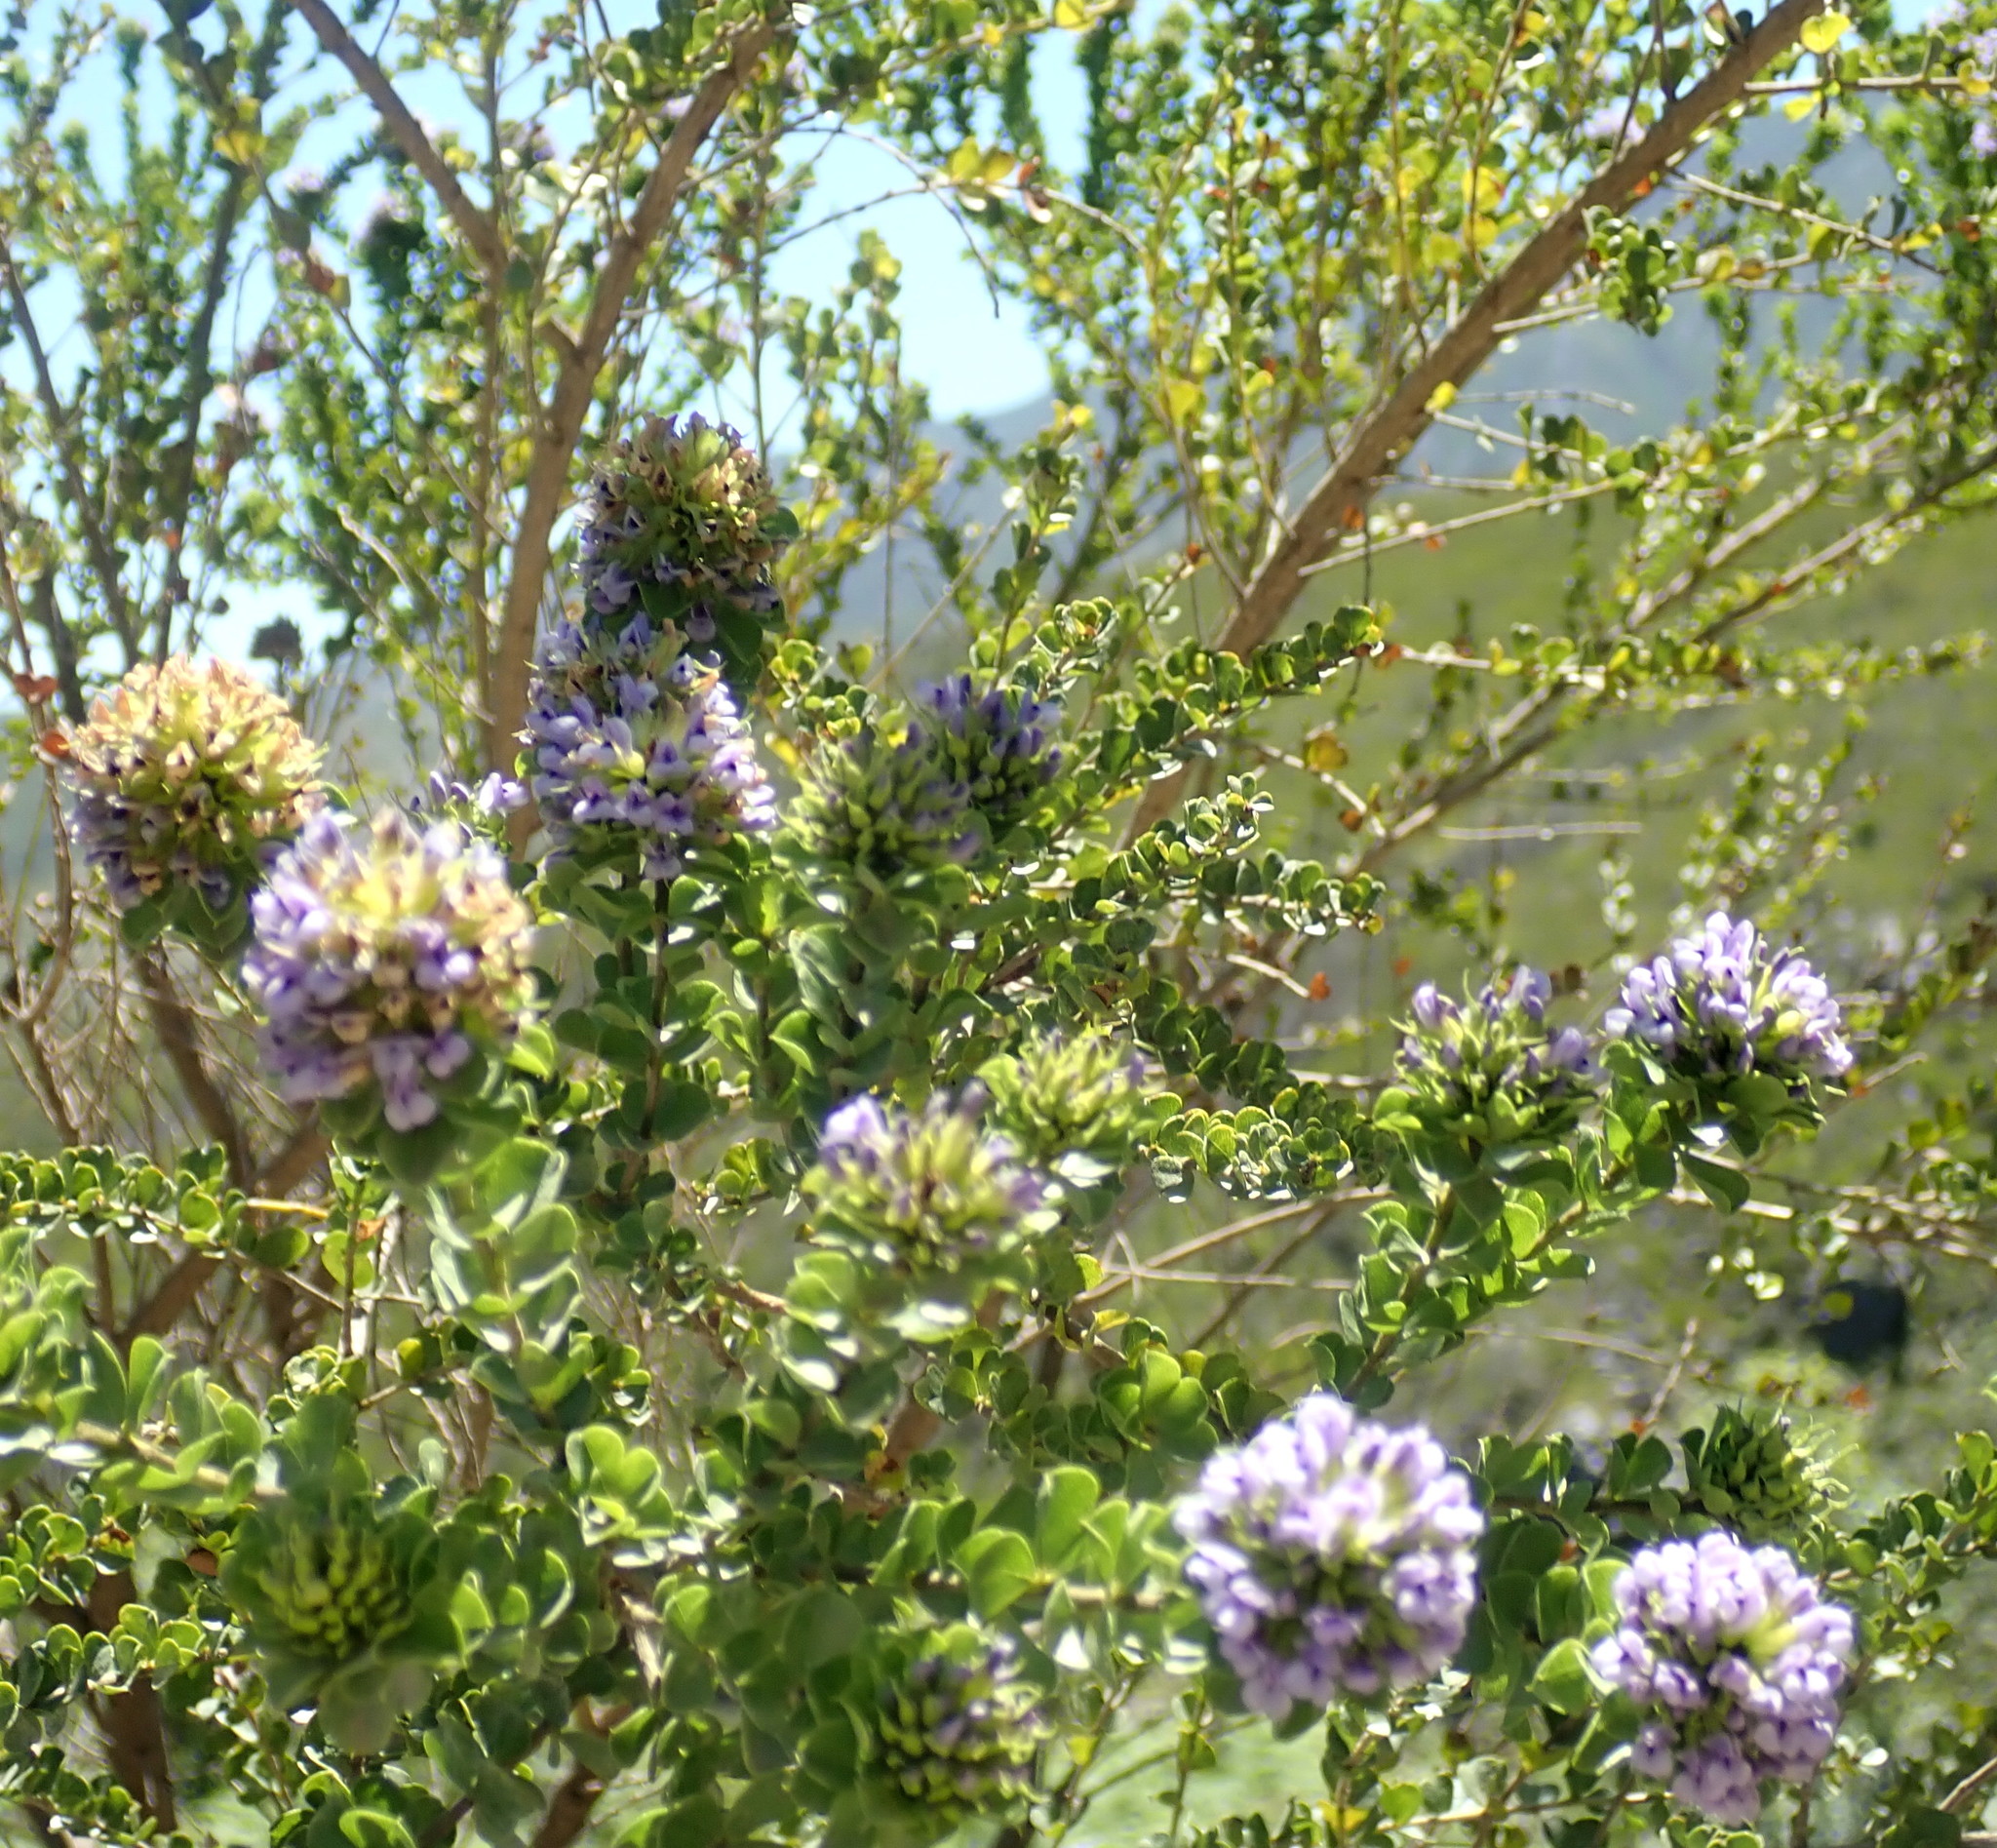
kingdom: Plantae
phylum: Tracheophyta
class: Magnoliopsida
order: Fabales
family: Fabaceae
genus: Psoralea
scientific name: Psoralea acuminata
